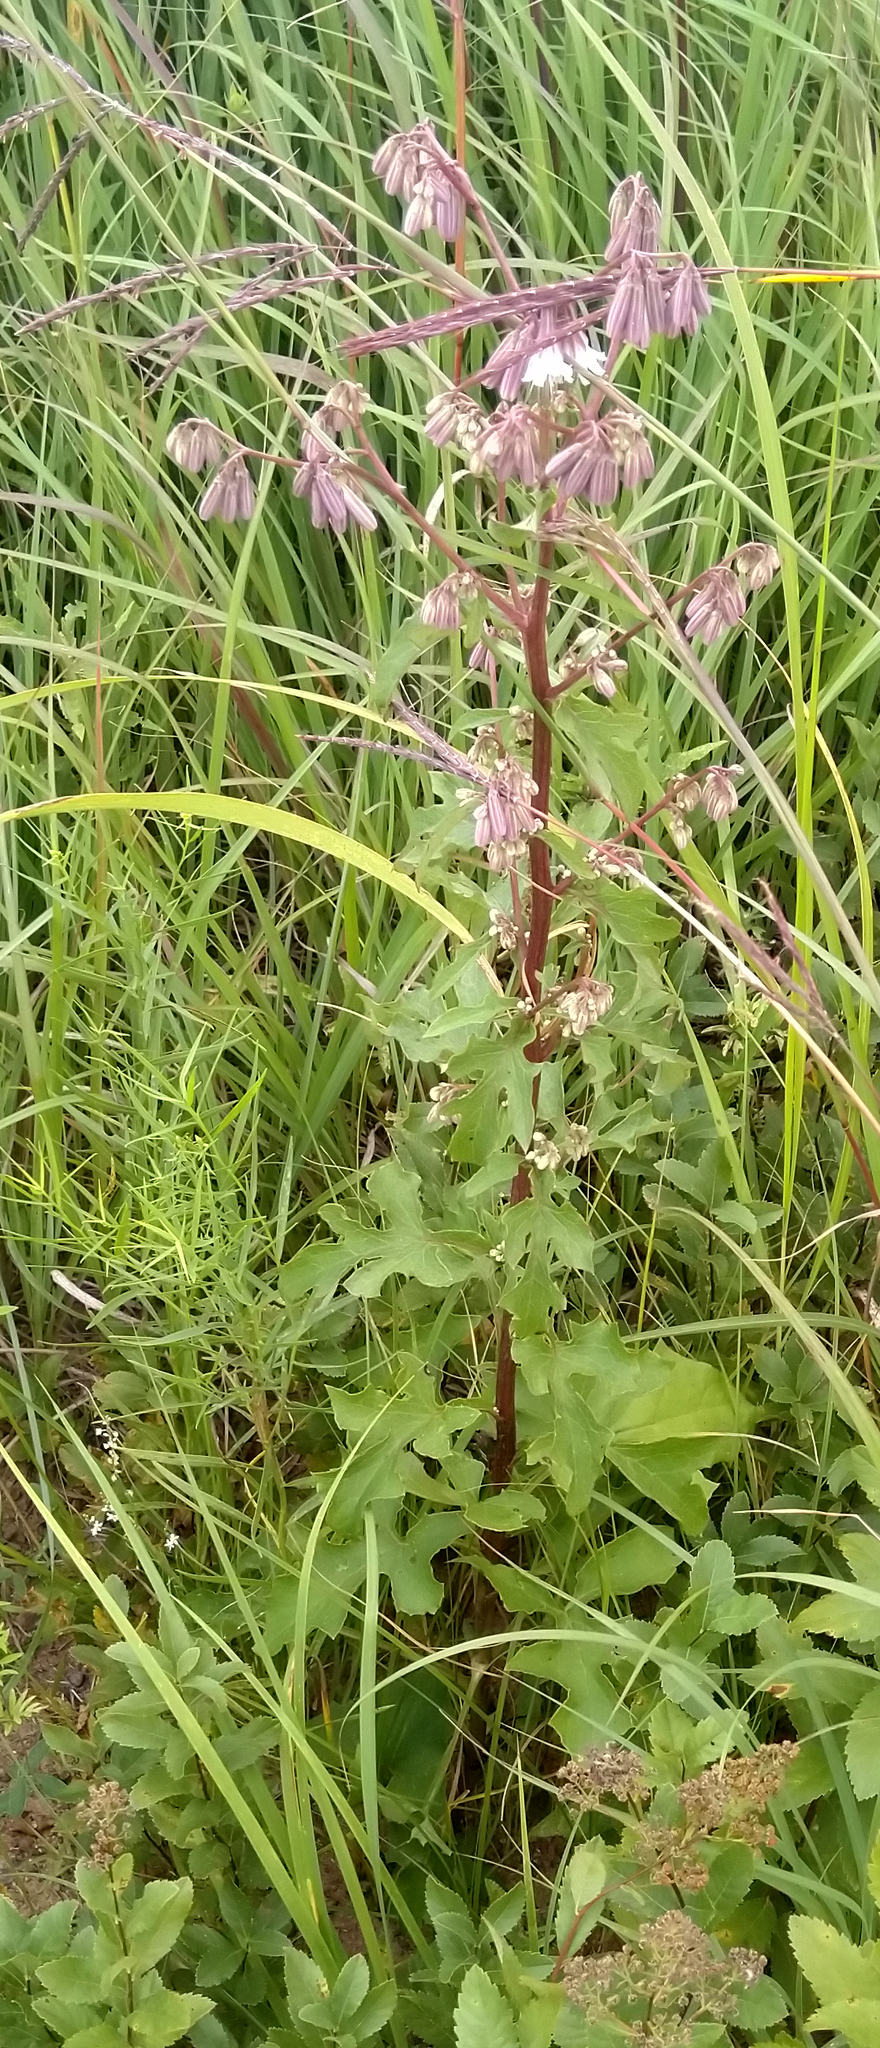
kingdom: Plantae
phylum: Tracheophyta
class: Magnoliopsida
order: Asterales
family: Asteraceae
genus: Nabalus
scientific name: Nabalus albus
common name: White rattlesnakeroot
